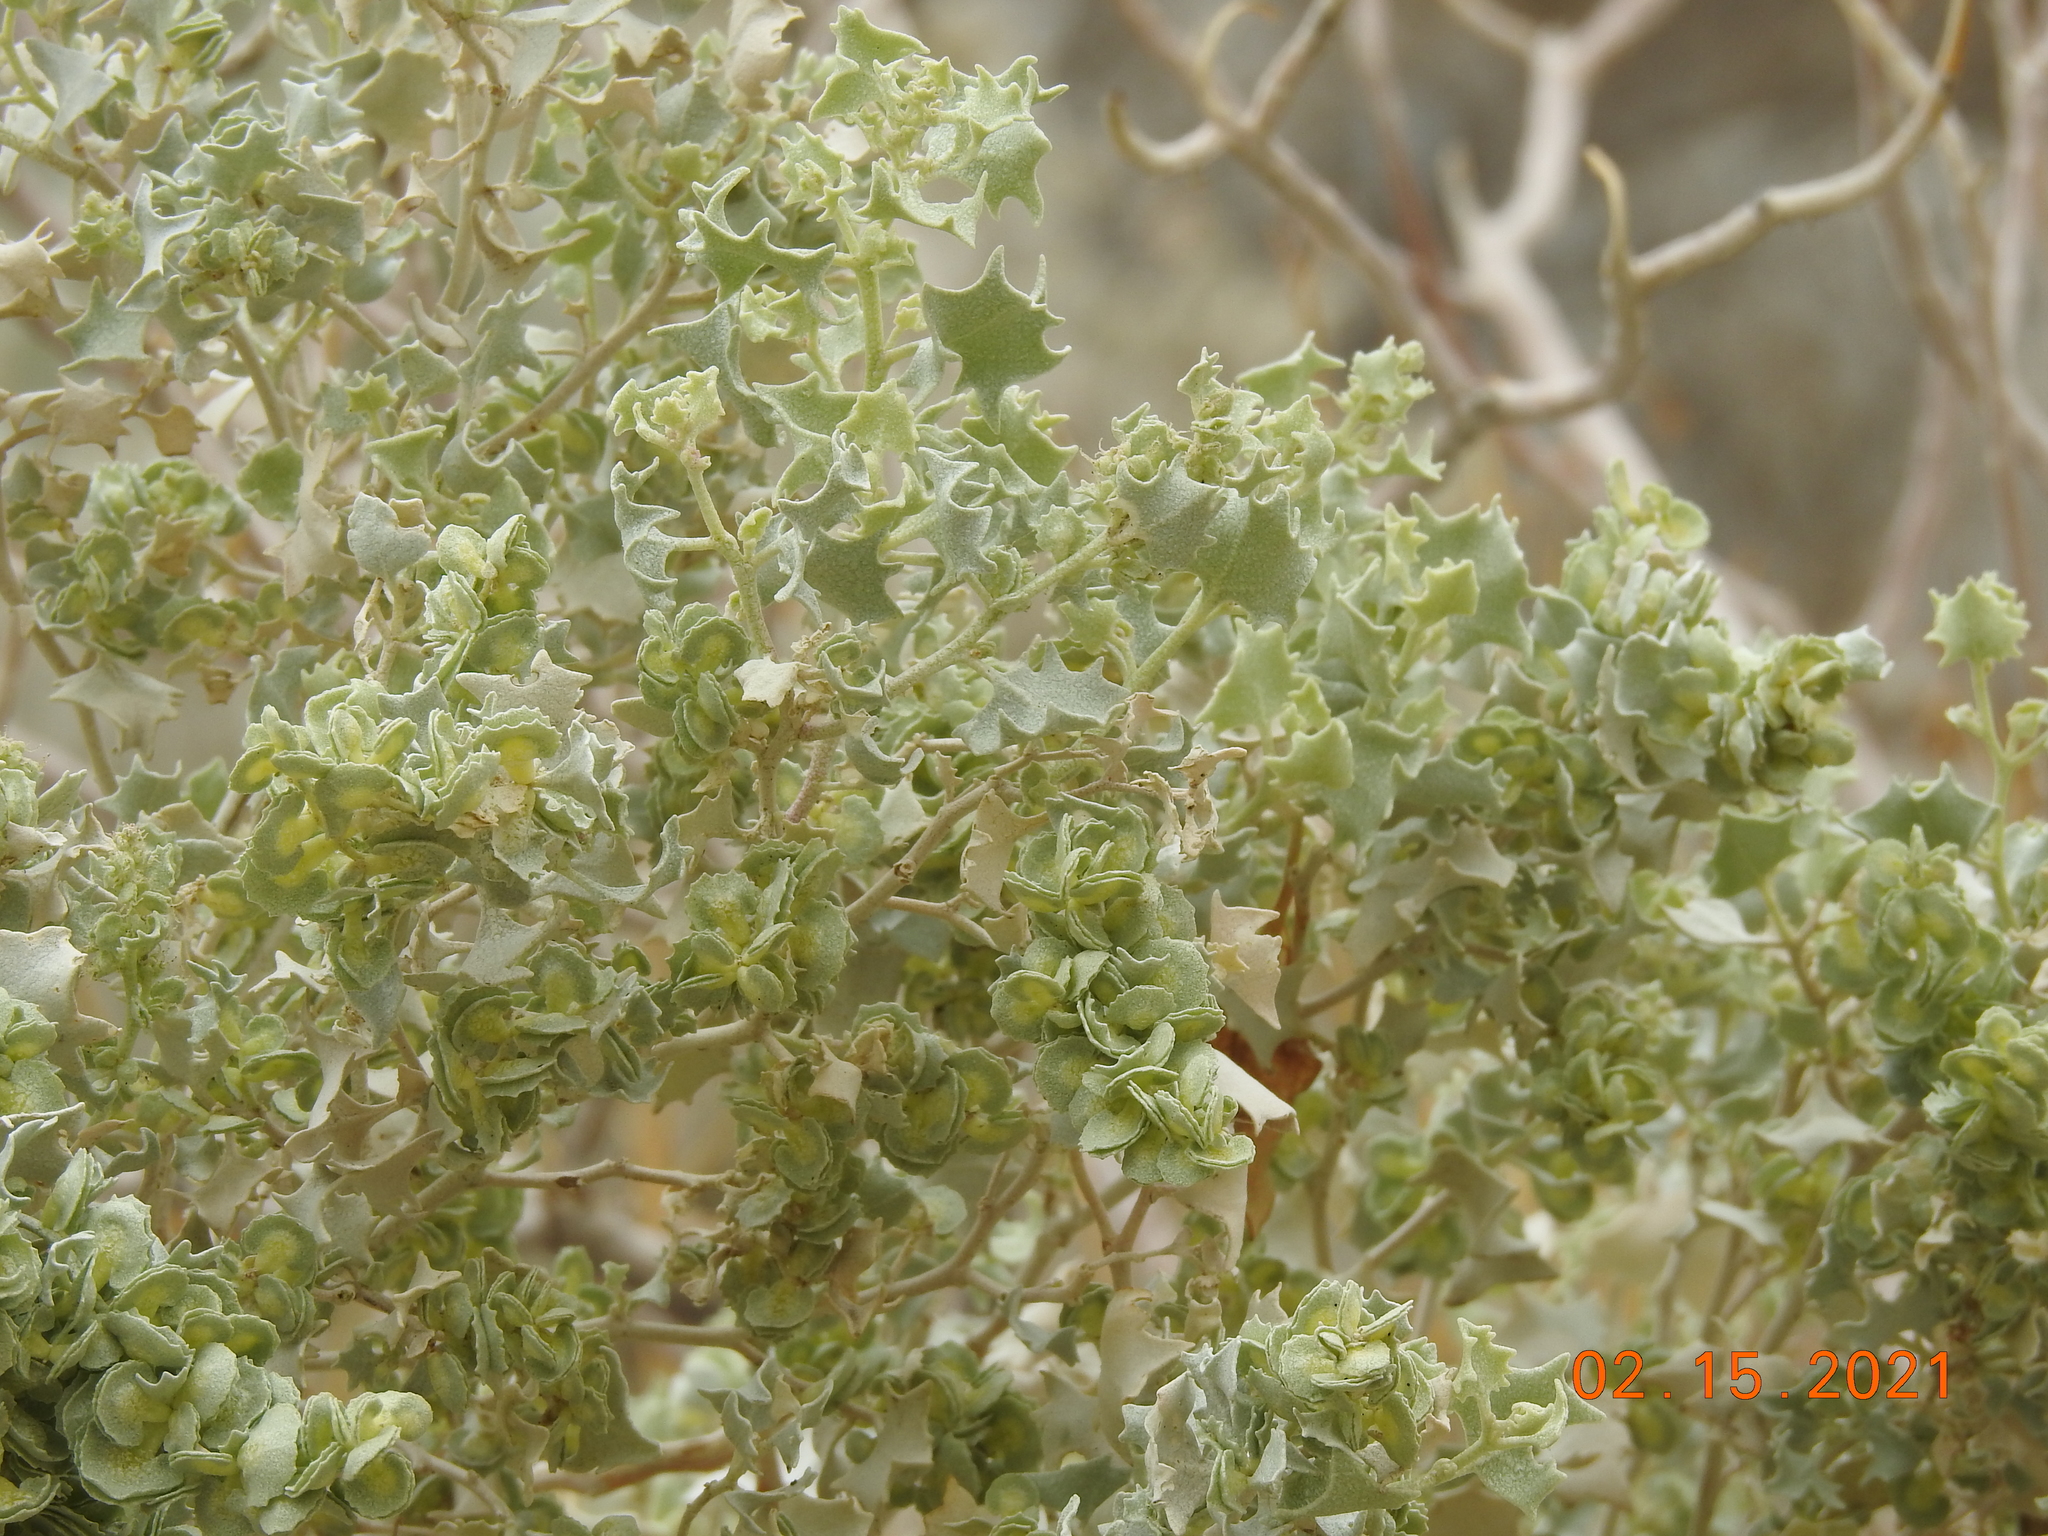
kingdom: Plantae
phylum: Tracheophyta
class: Magnoliopsida
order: Caryophyllales
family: Amaranthaceae
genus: Atriplex
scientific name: Atriplex hymenelytra
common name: Desert-holly
